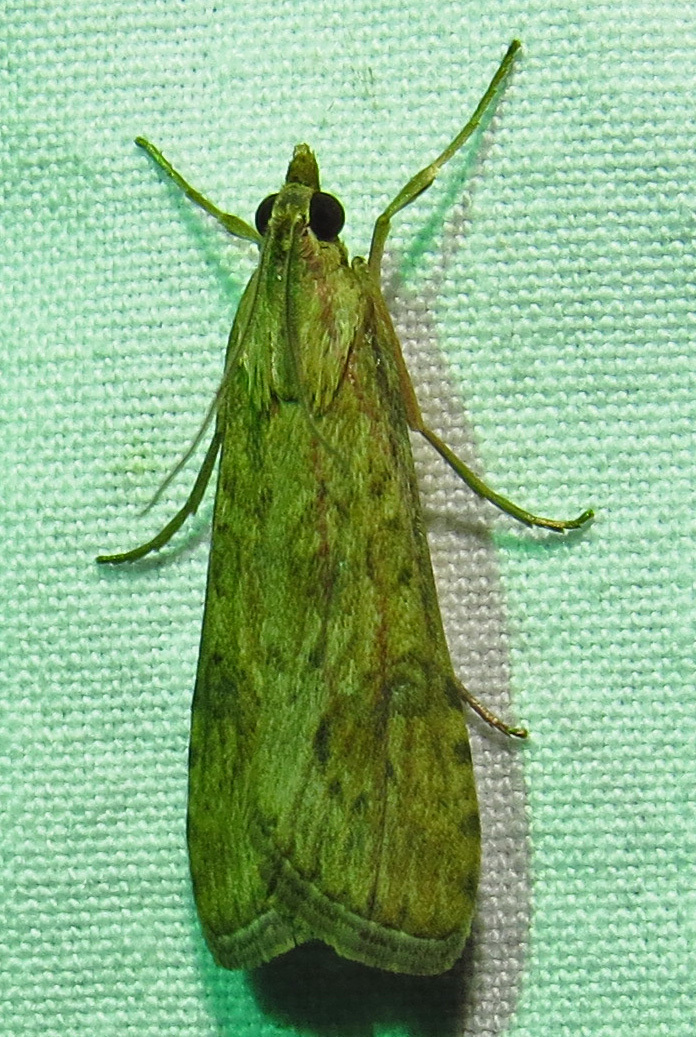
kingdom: Animalia
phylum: Arthropoda
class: Insecta
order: Lepidoptera
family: Crambidae
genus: Nomophila
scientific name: Nomophila nearctica
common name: American rush veneer
